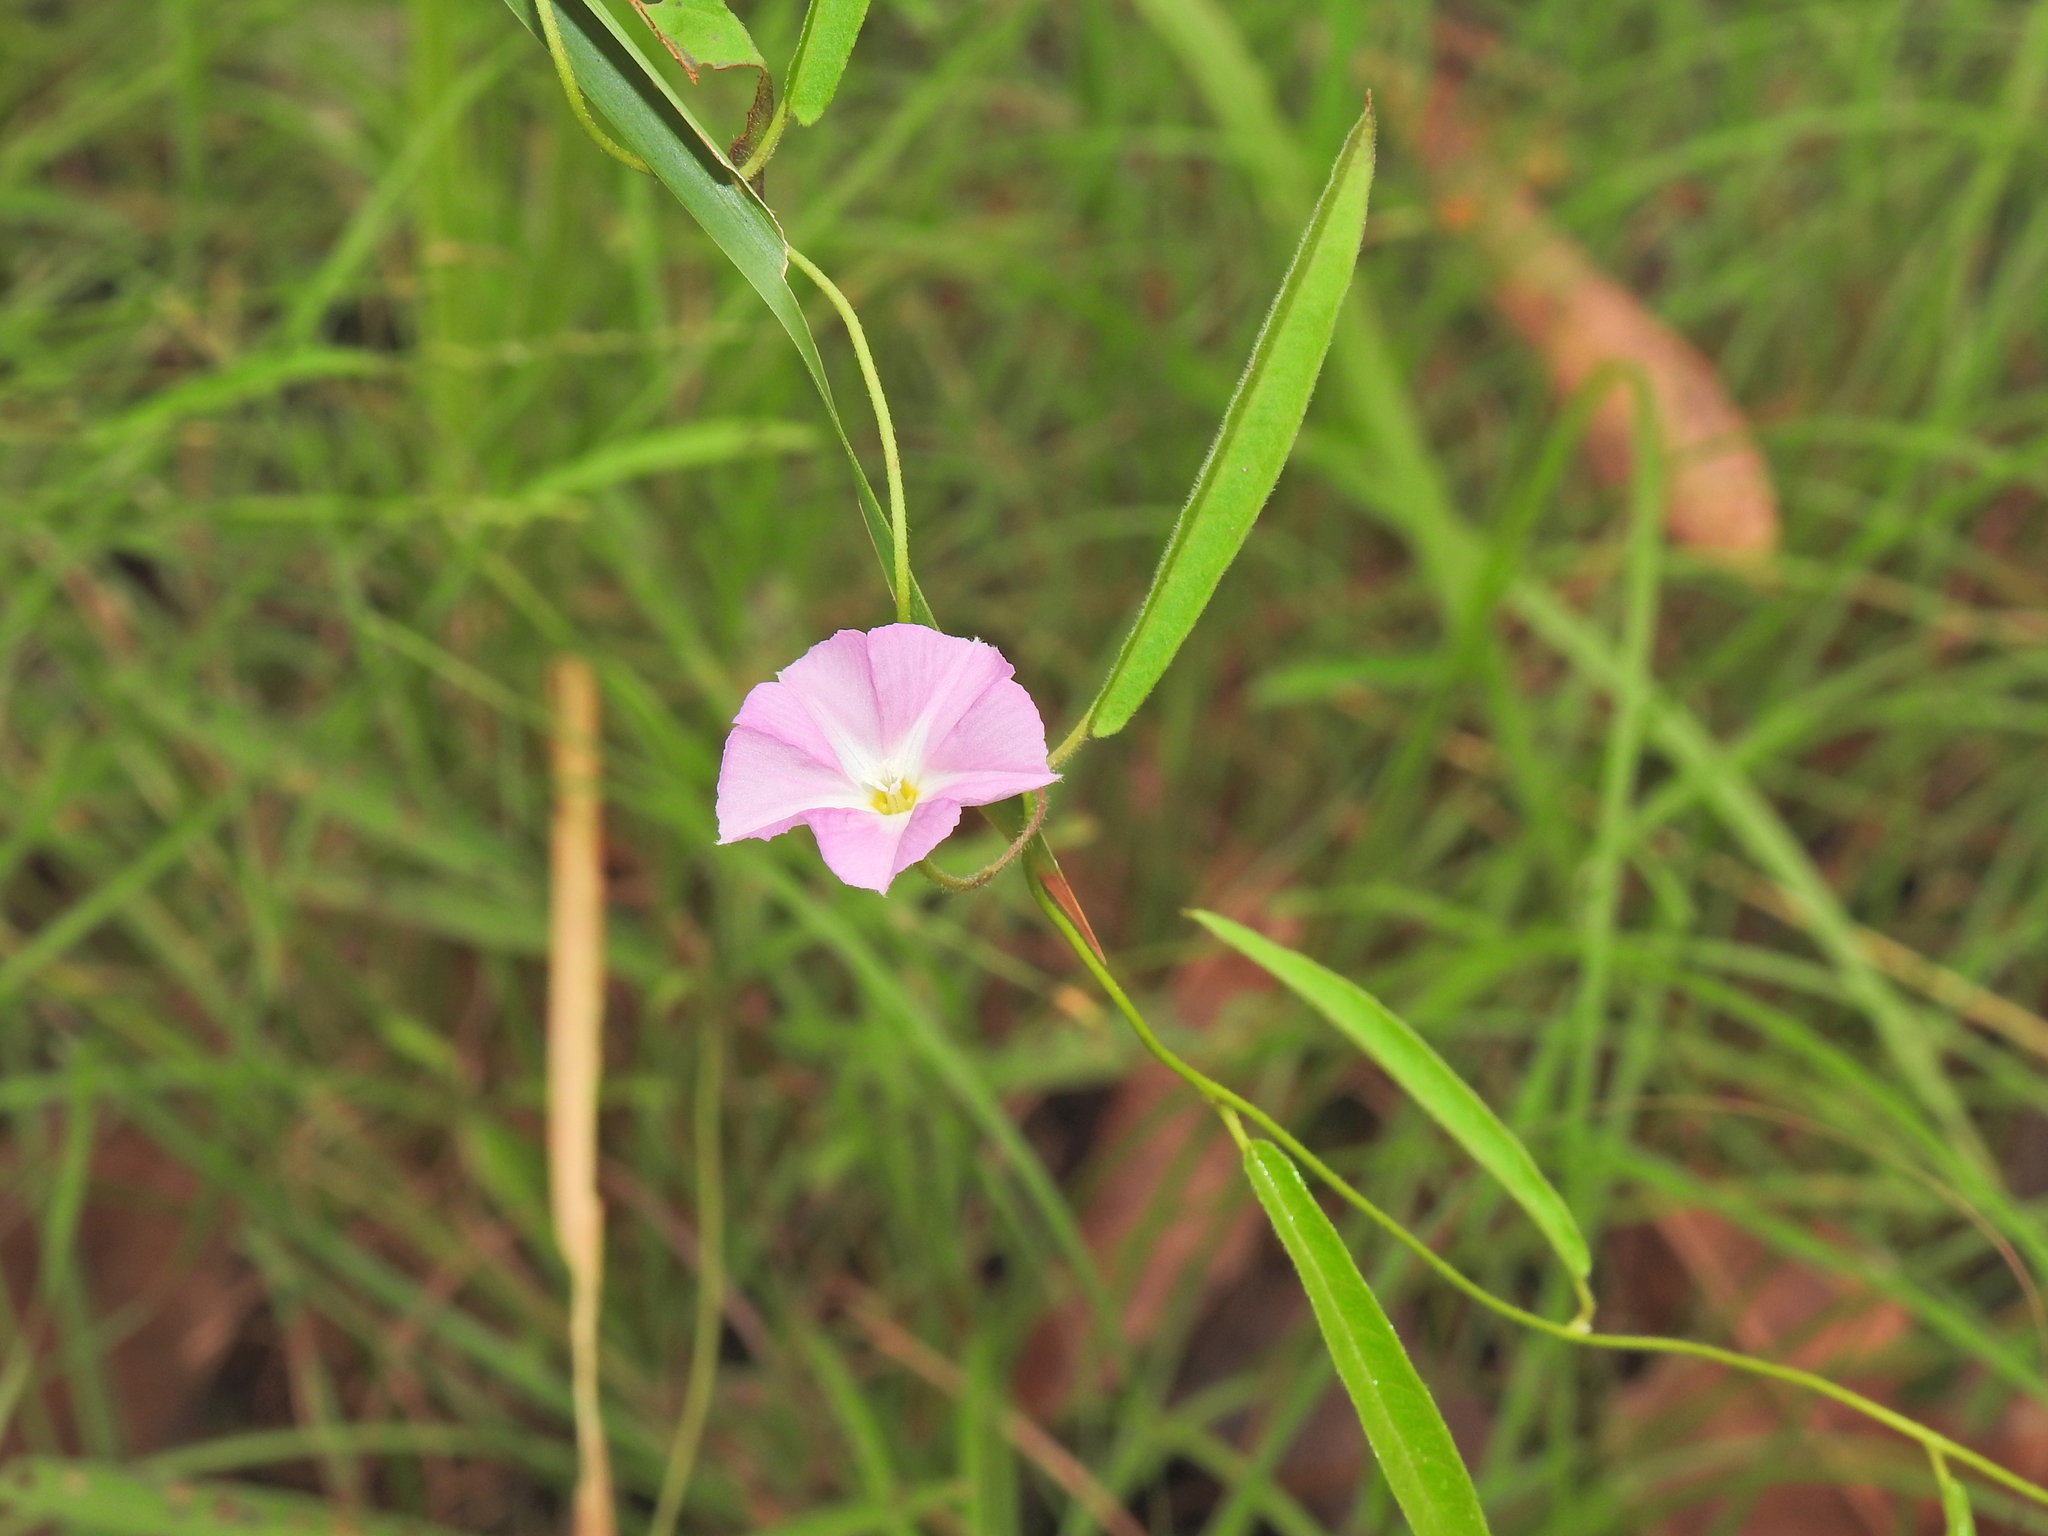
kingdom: Plantae
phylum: Tracheophyta
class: Magnoliopsida
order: Solanales
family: Convolvulaceae
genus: Polymeria
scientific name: Polymeria calycina
